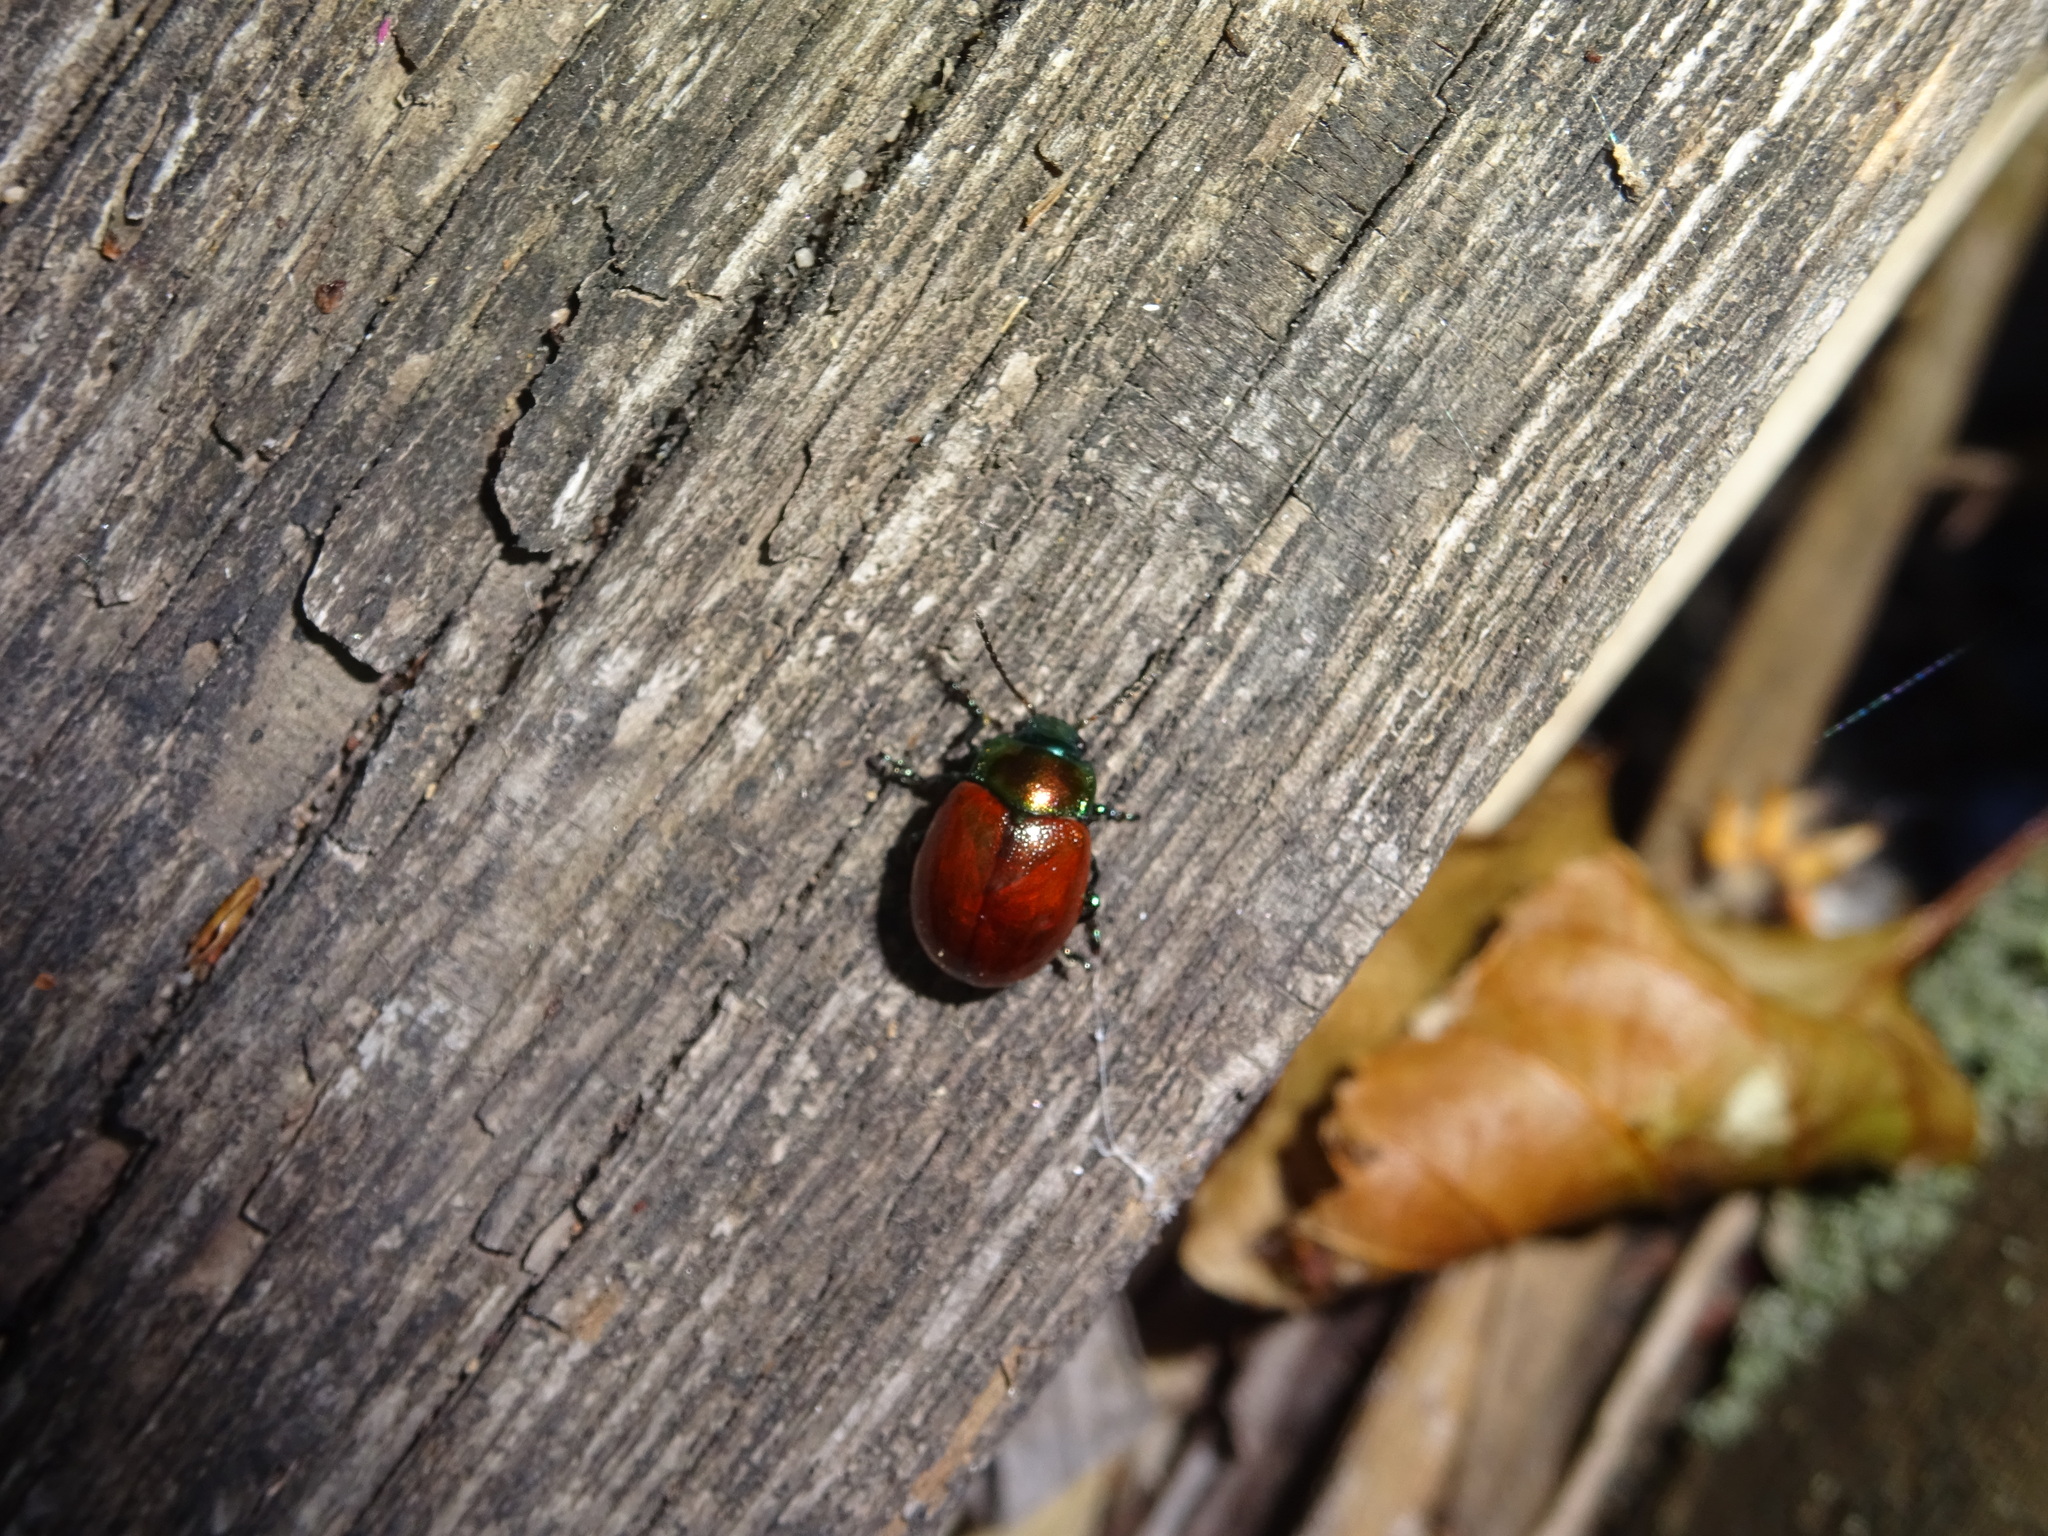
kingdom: Animalia
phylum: Arthropoda
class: Insecta
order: Coleoptera
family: Chrysomelidae
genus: Chrysomela
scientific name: Chrysomela polita
